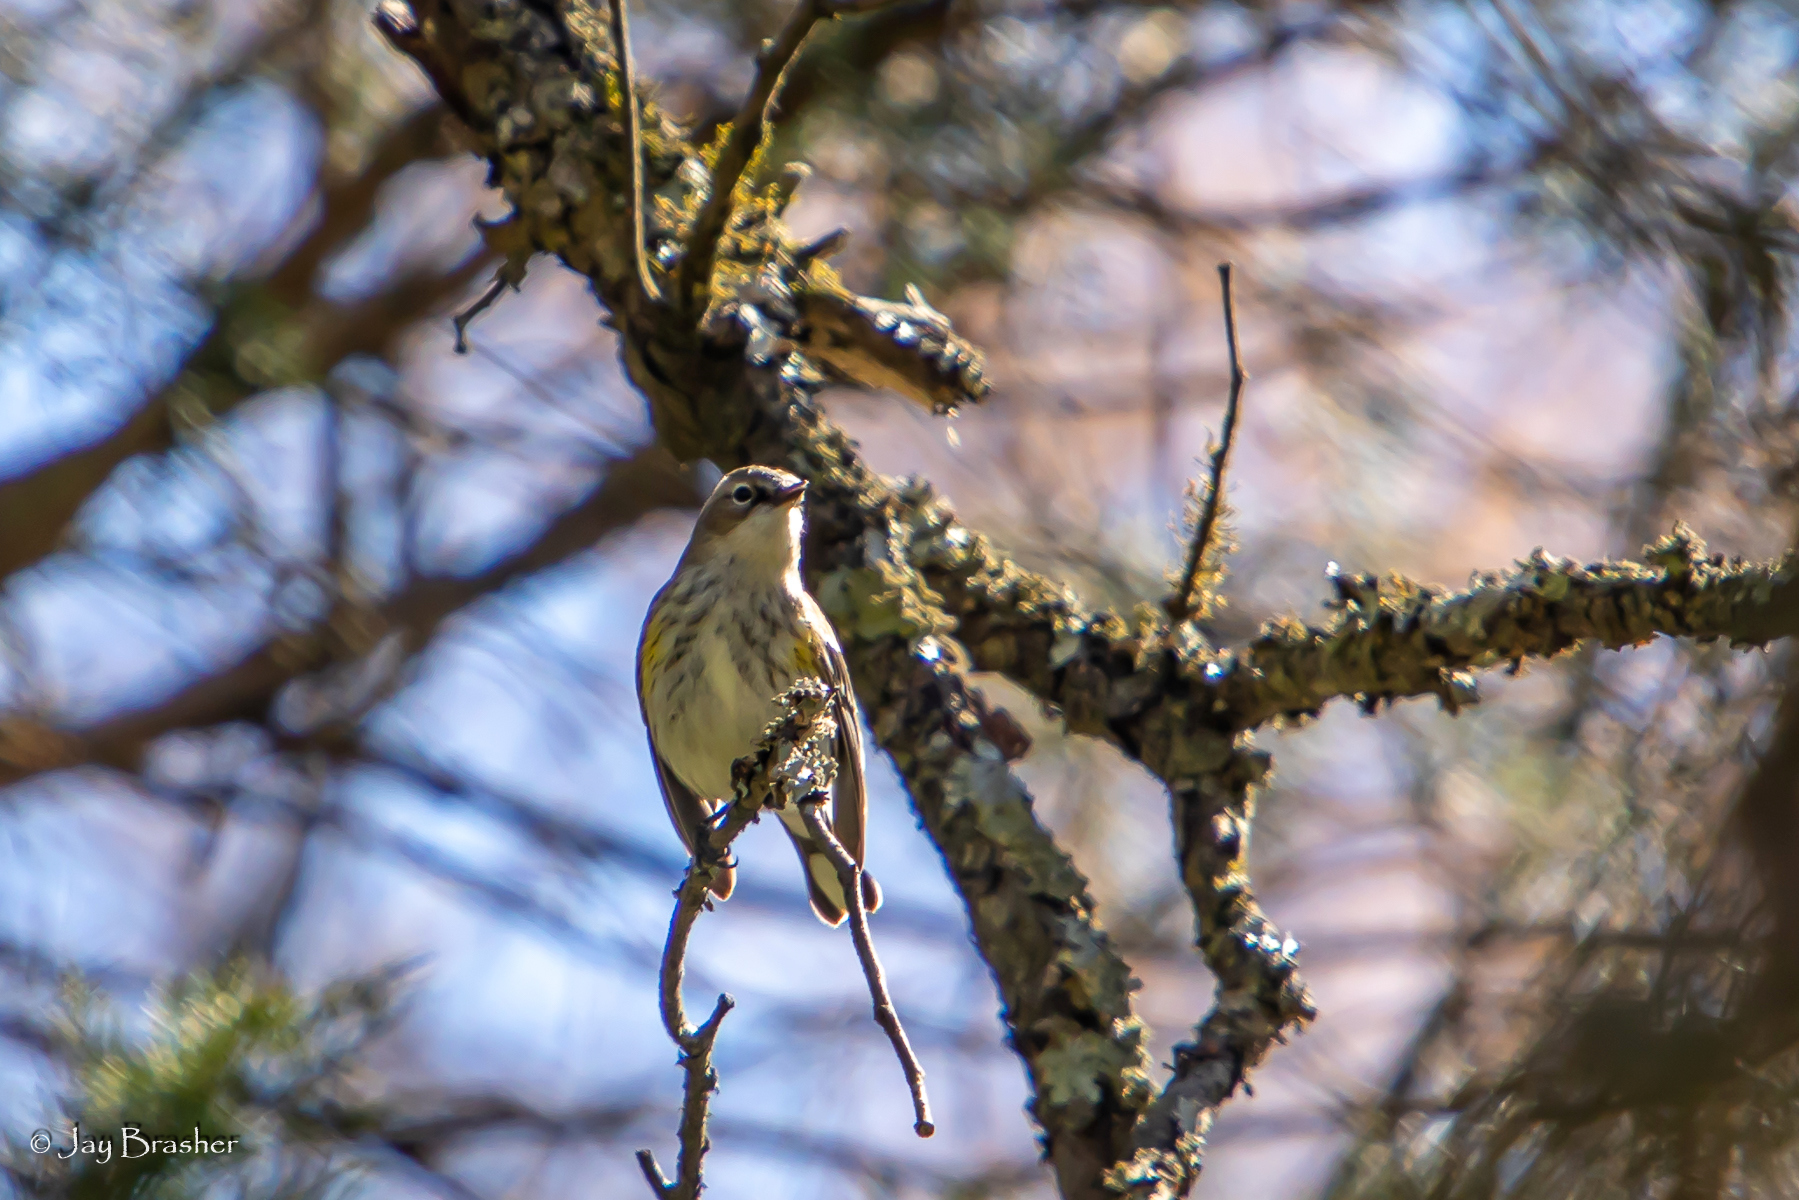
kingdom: Animalia
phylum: Chordata
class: Aves
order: Passeriformes
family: Parulidae
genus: Setophaga
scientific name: Setophaga coronata
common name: Myrtle warbler
